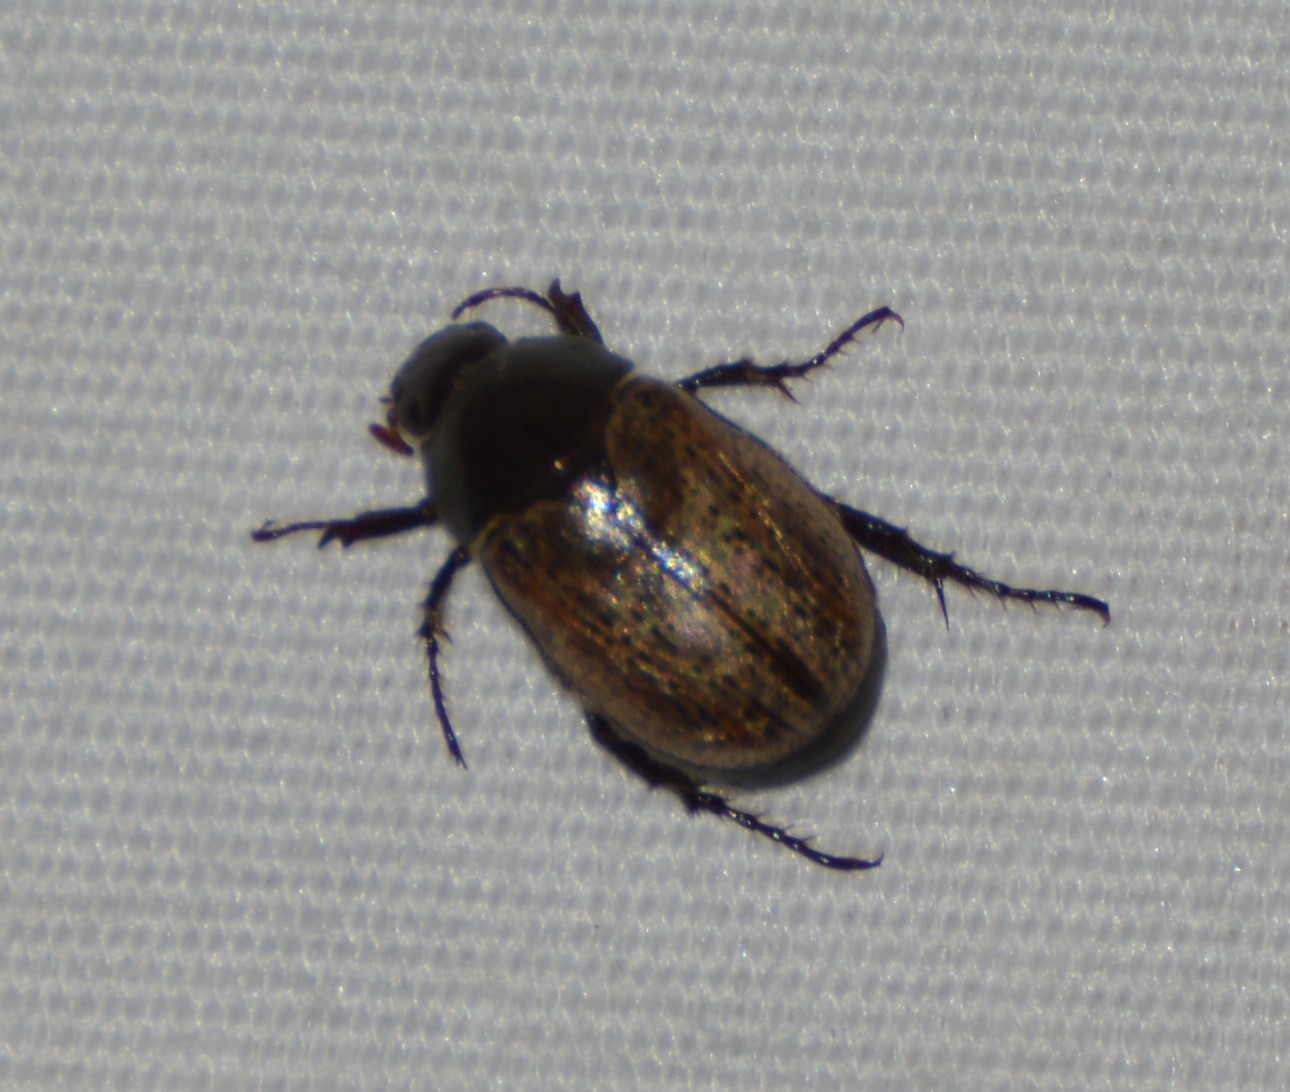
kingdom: Animalia
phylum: Arthropoda
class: Insecta
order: Coleoptera
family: Scarabaeidae
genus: Paranomala
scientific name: Paranomala foraminosa
